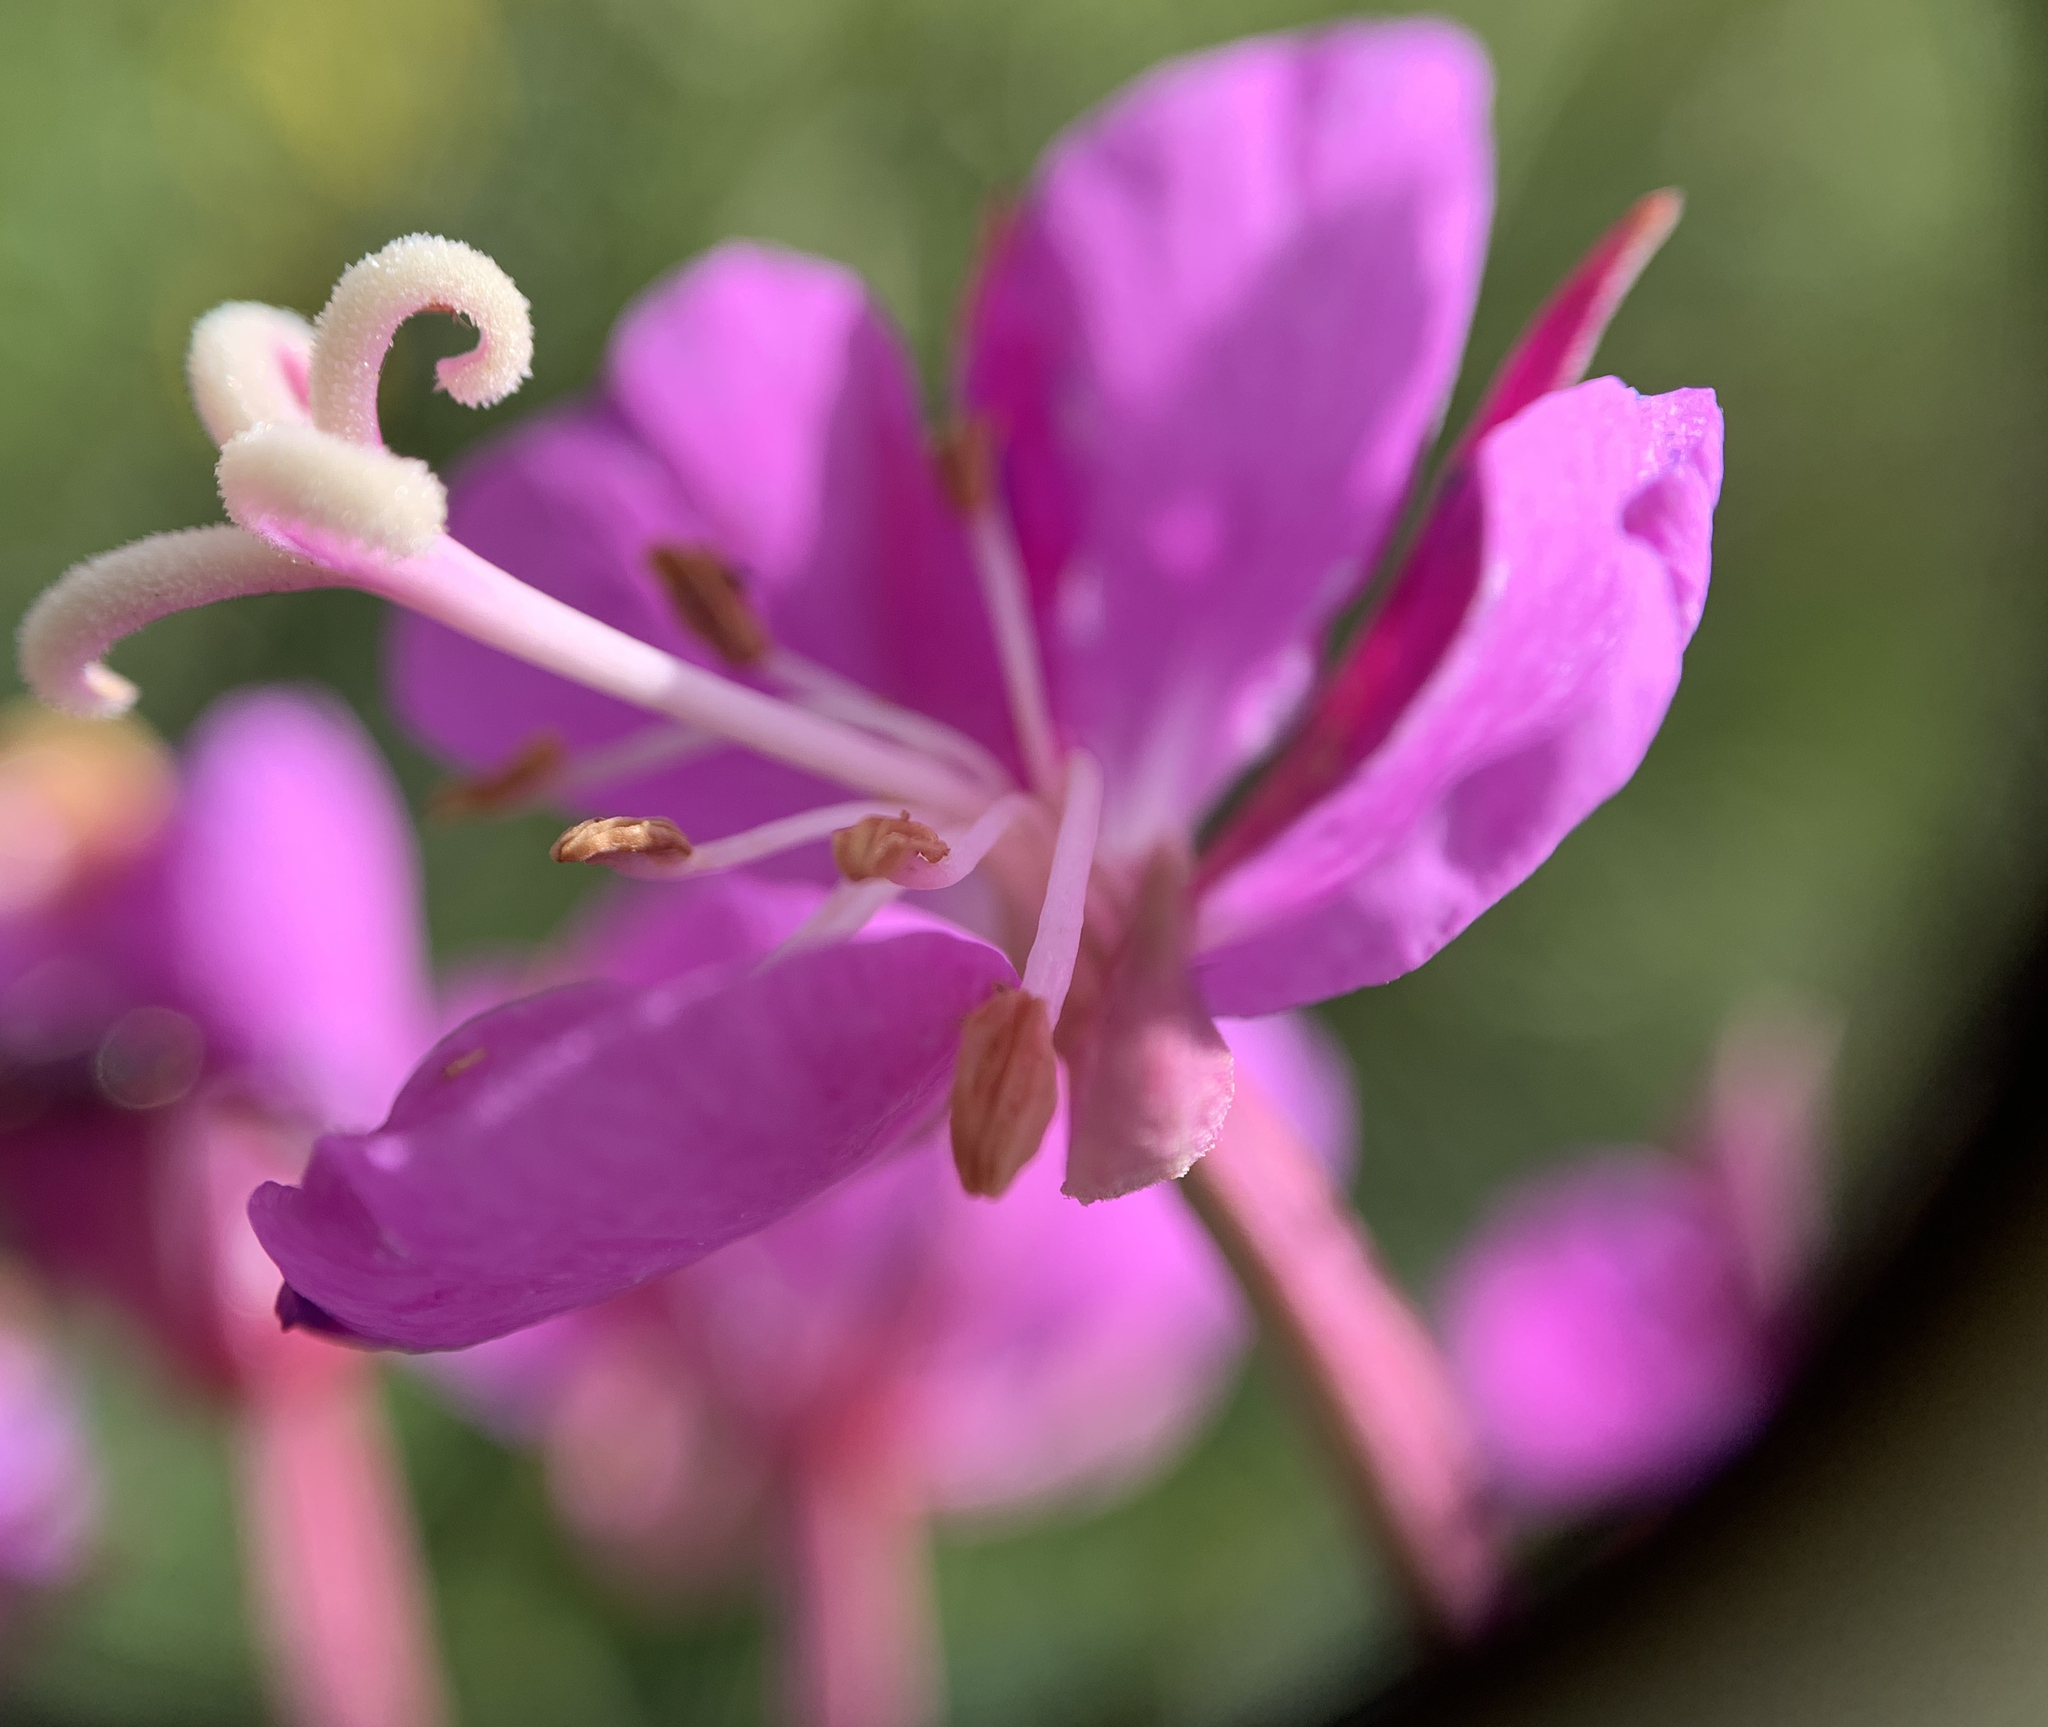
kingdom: Plantae
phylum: Tracheophyta
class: Magnoliopsida
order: Myrtales
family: Onagraceae
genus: Chamaenerion
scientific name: Chamaenerion angustifolium
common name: Fireweed
